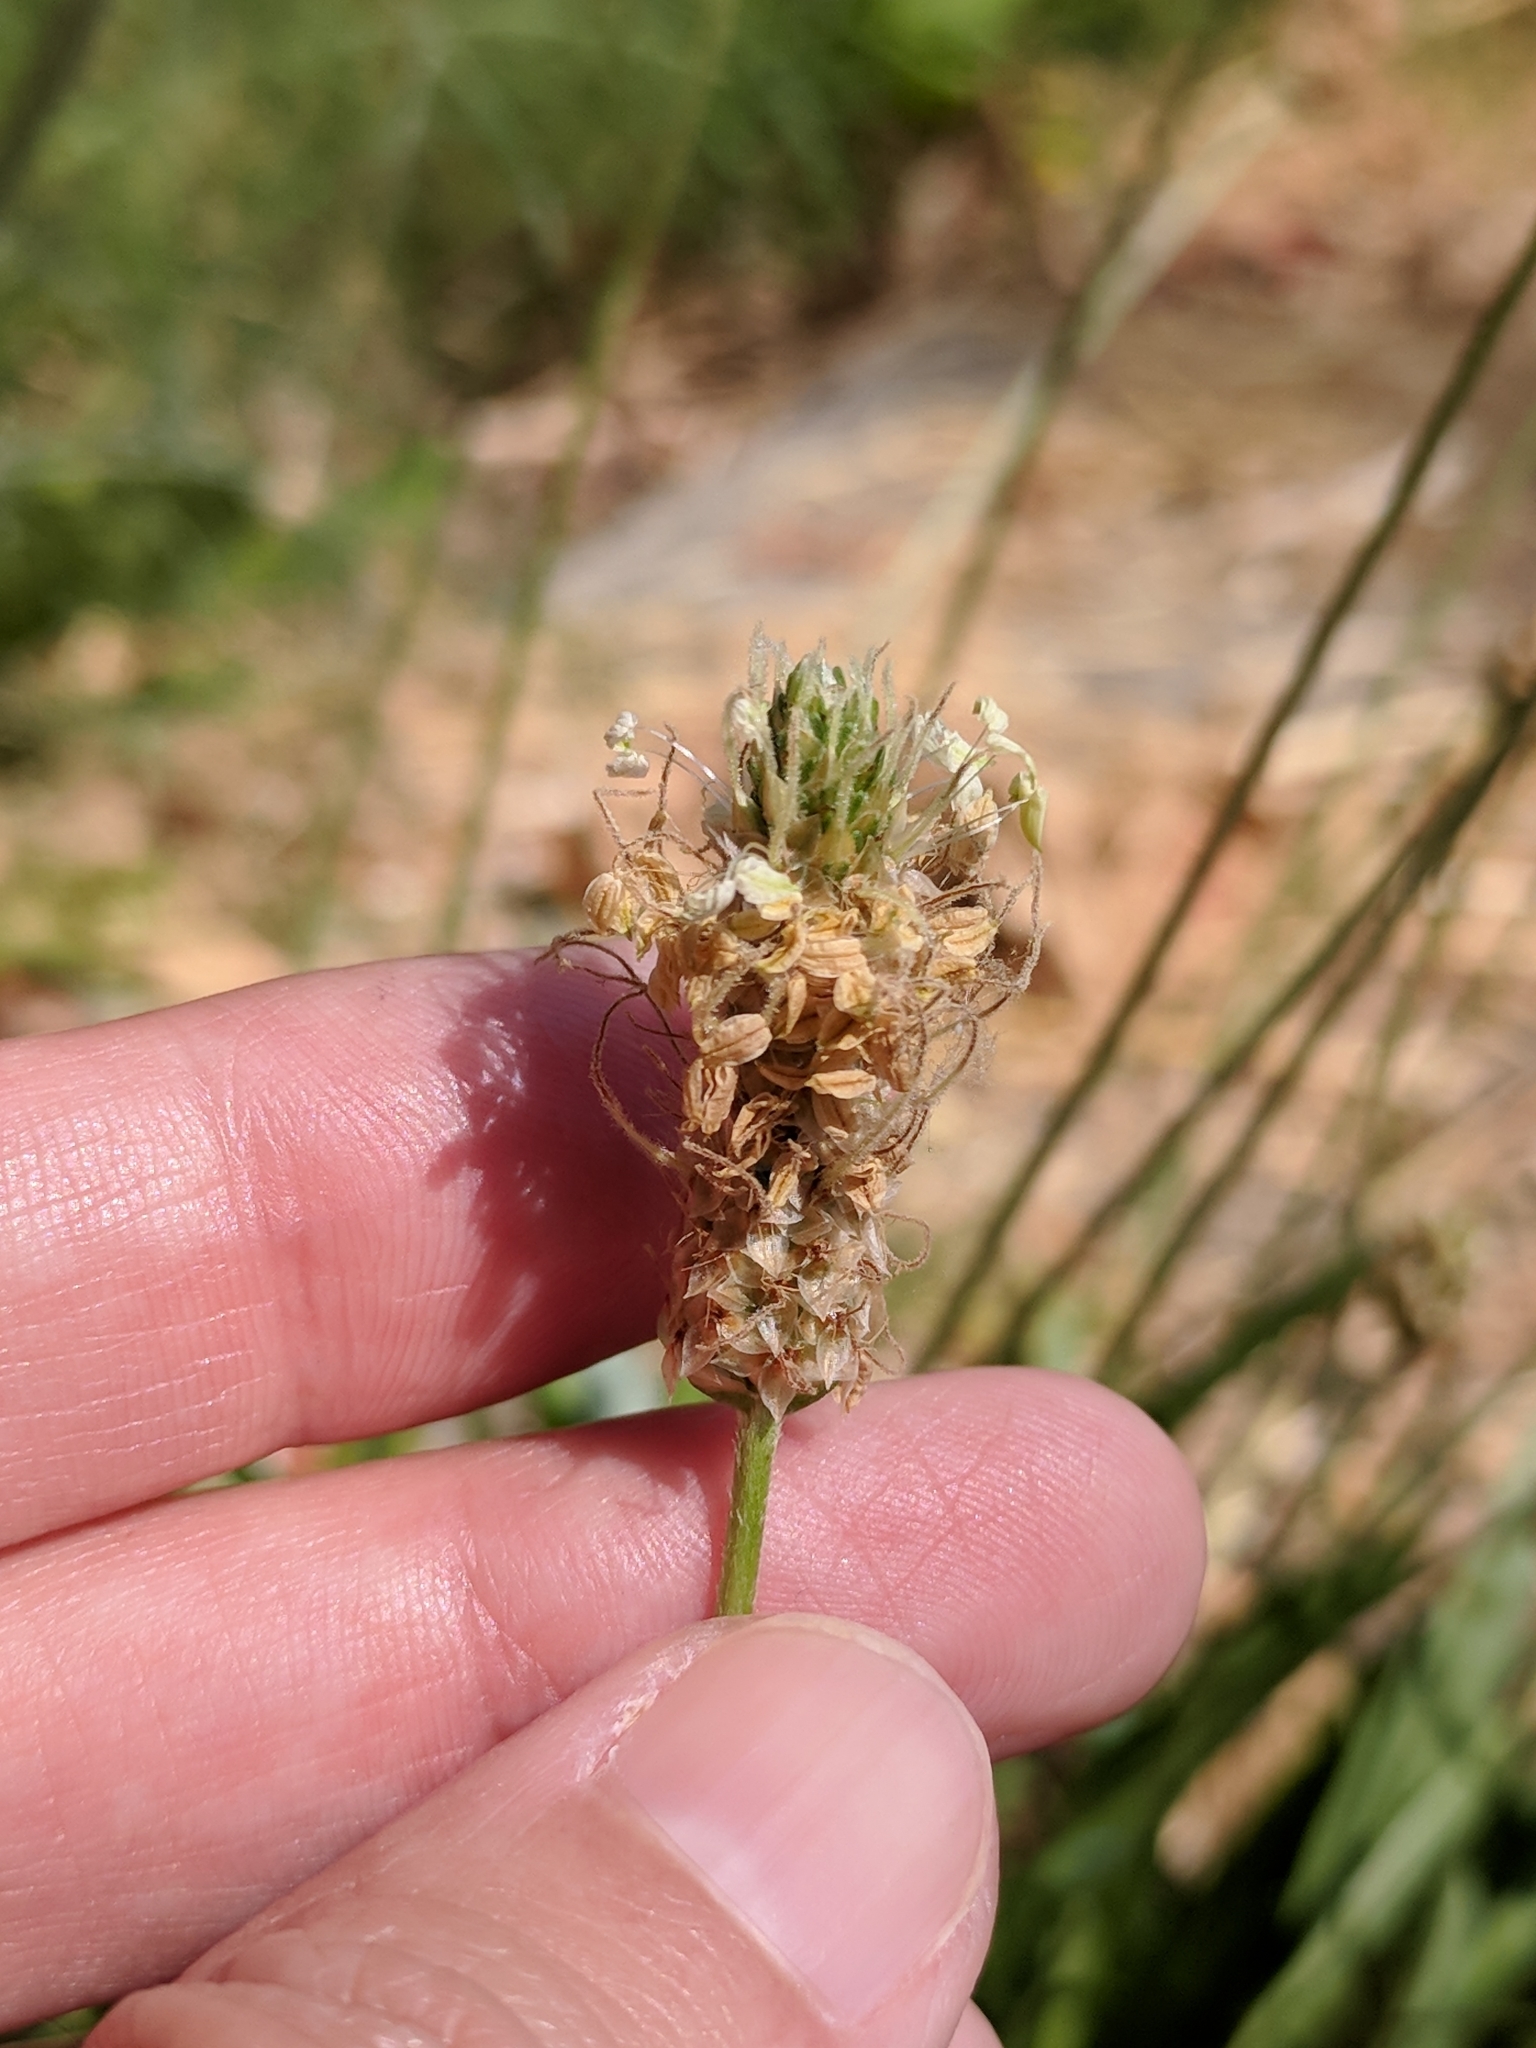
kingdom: Plantae
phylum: Tracheophyta
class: Magnoliopsida
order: Lamiales
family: Plantaginaceae
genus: Plantago
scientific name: Plantago lanceolata
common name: Ribwort plantain
